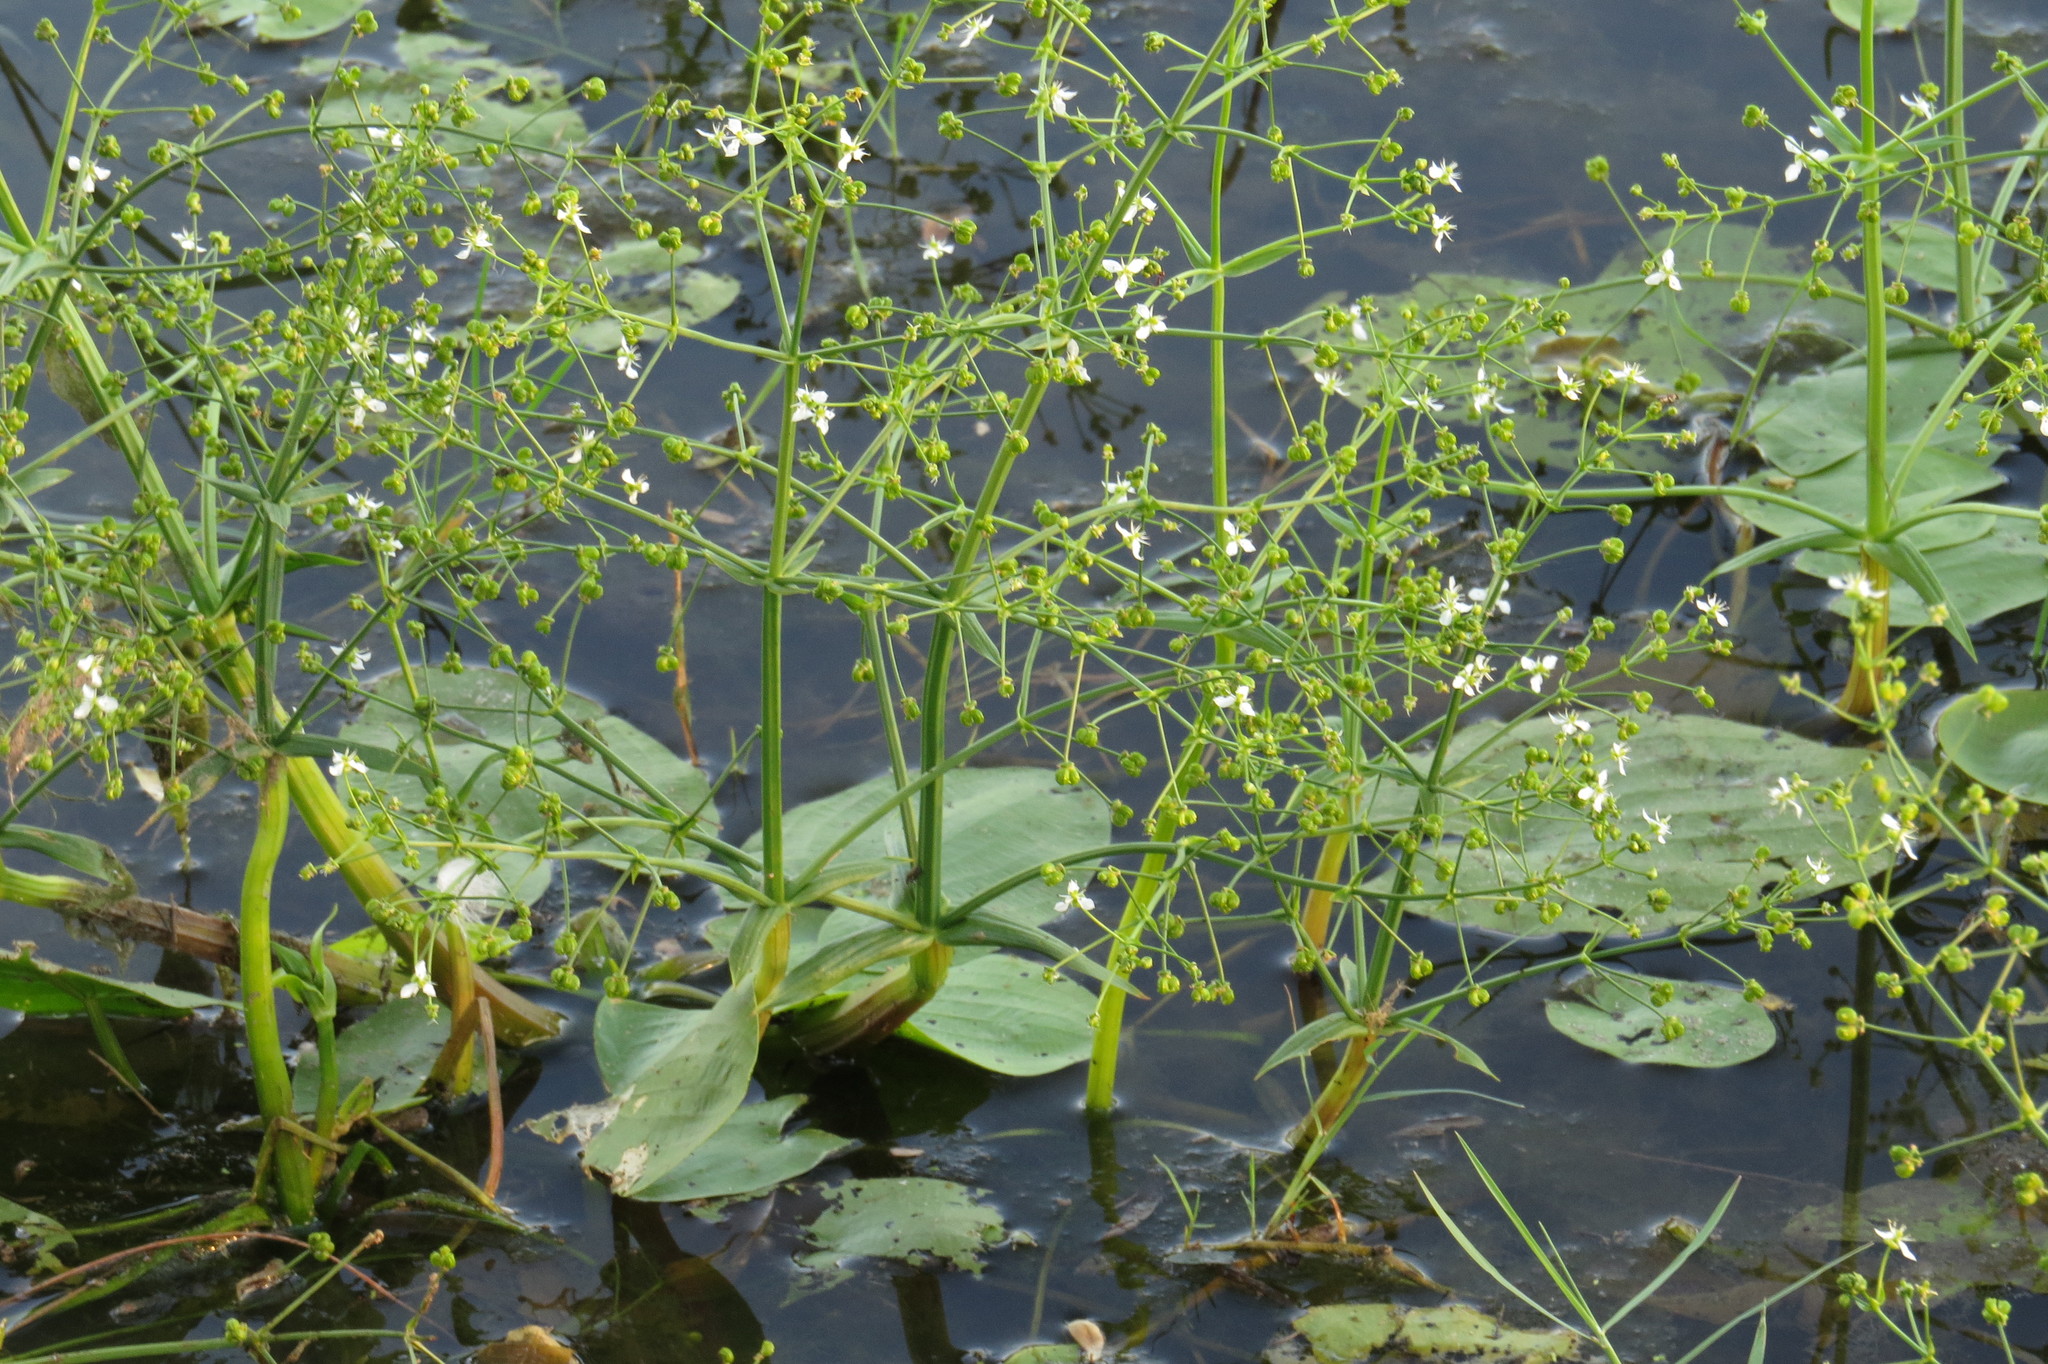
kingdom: Plantae
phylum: Tracheophyta
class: Liliopsida
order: Alismatales
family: Alismataceae
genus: Albidella
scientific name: Albidella oligococca
